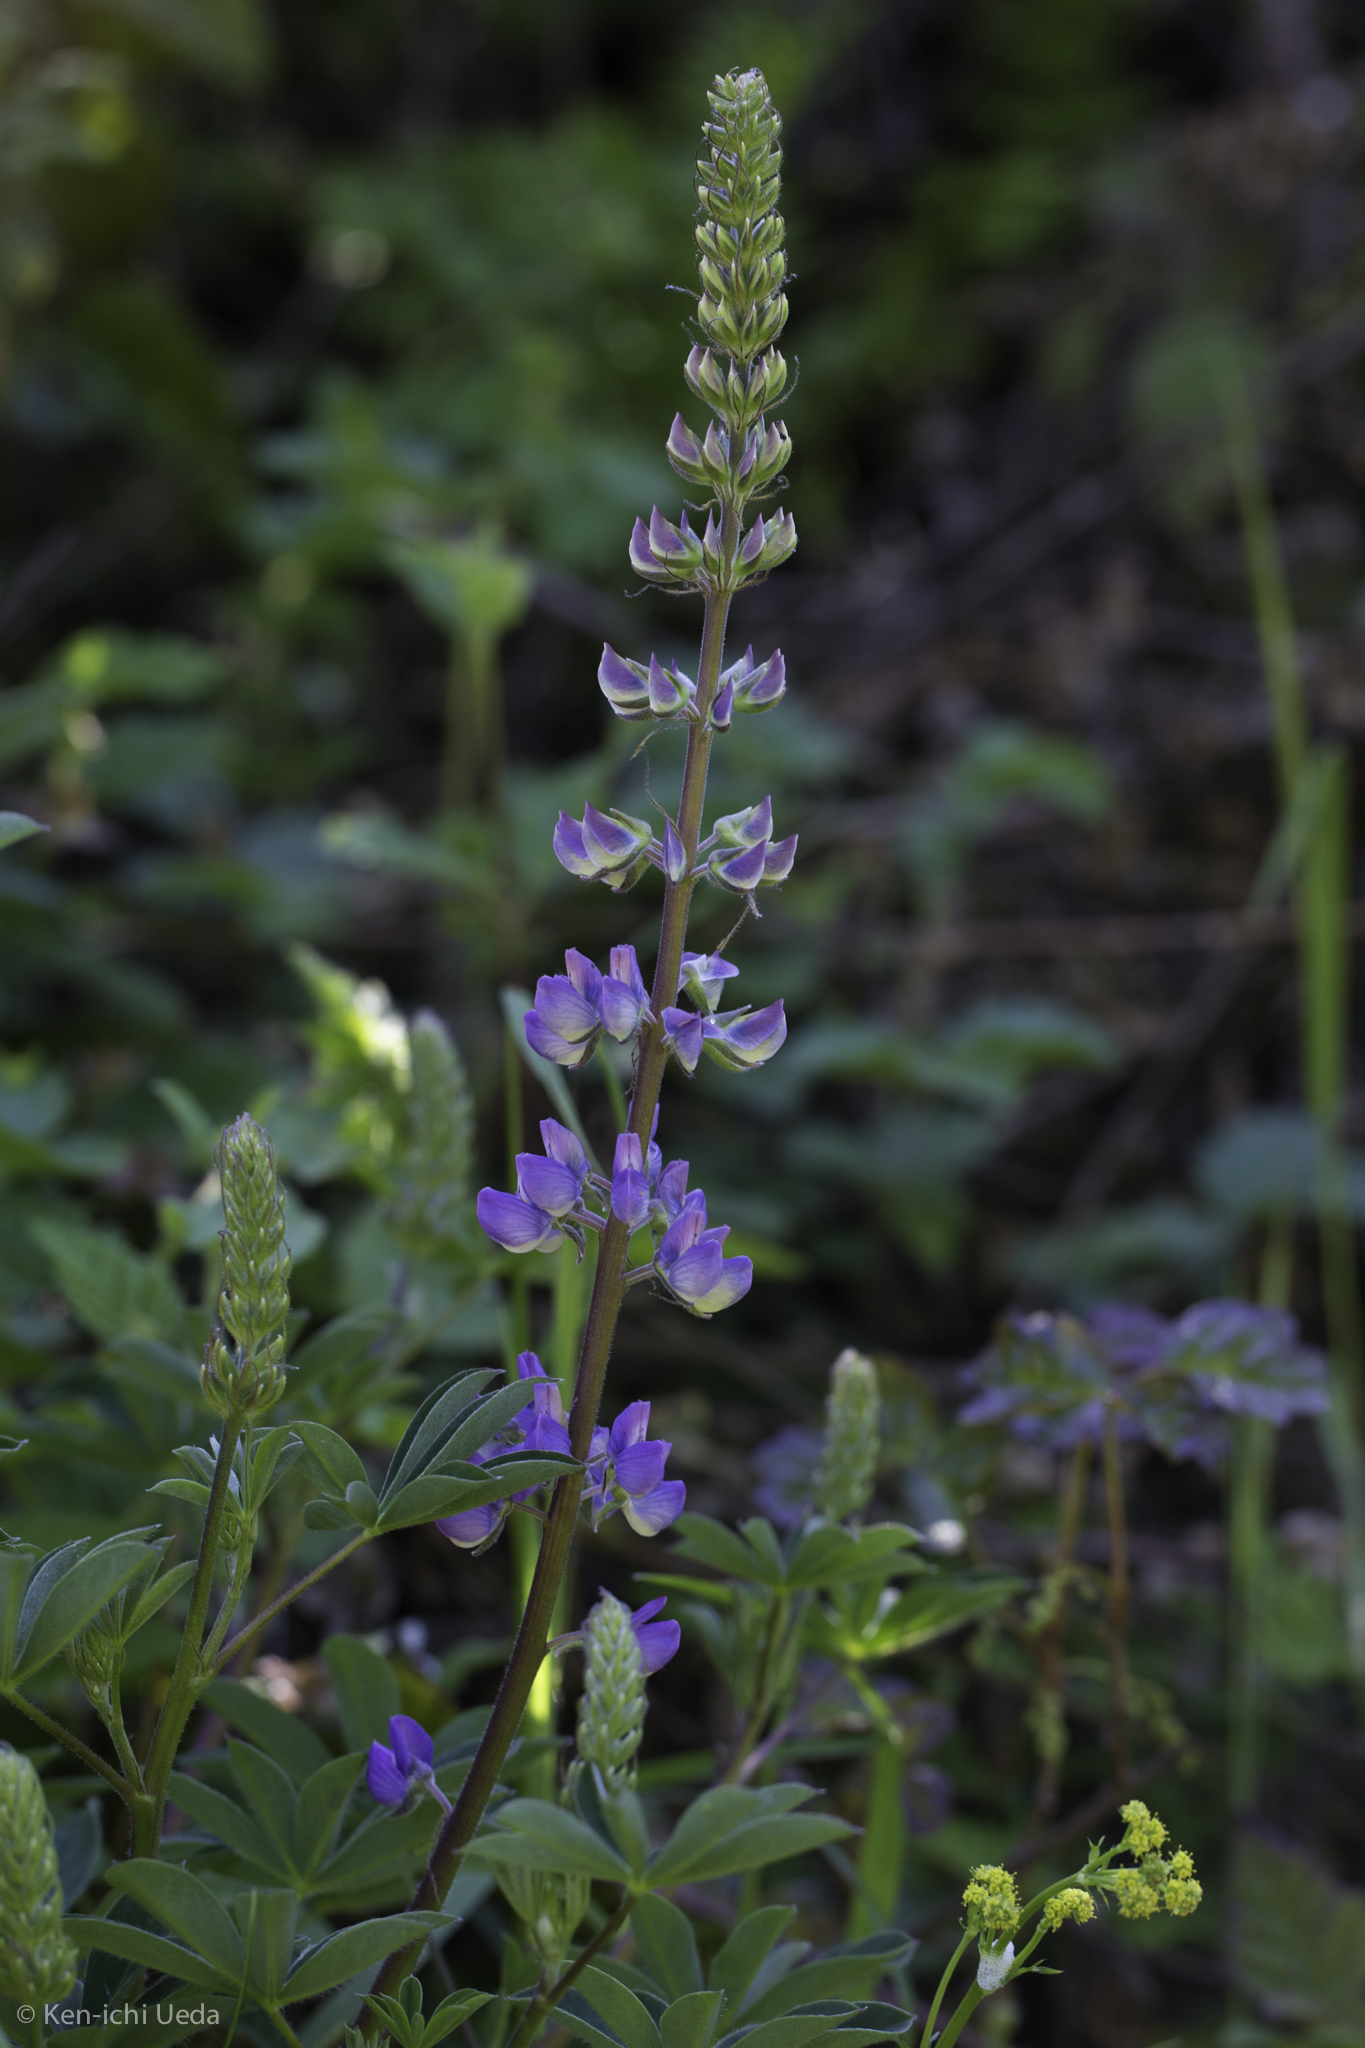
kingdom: Plantae
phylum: Tracheophyta
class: Magnoliopsida
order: Fabales
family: Fabaceae
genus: Lupinus
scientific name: Lupinus latifolius
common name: Broad-leaved lupine
